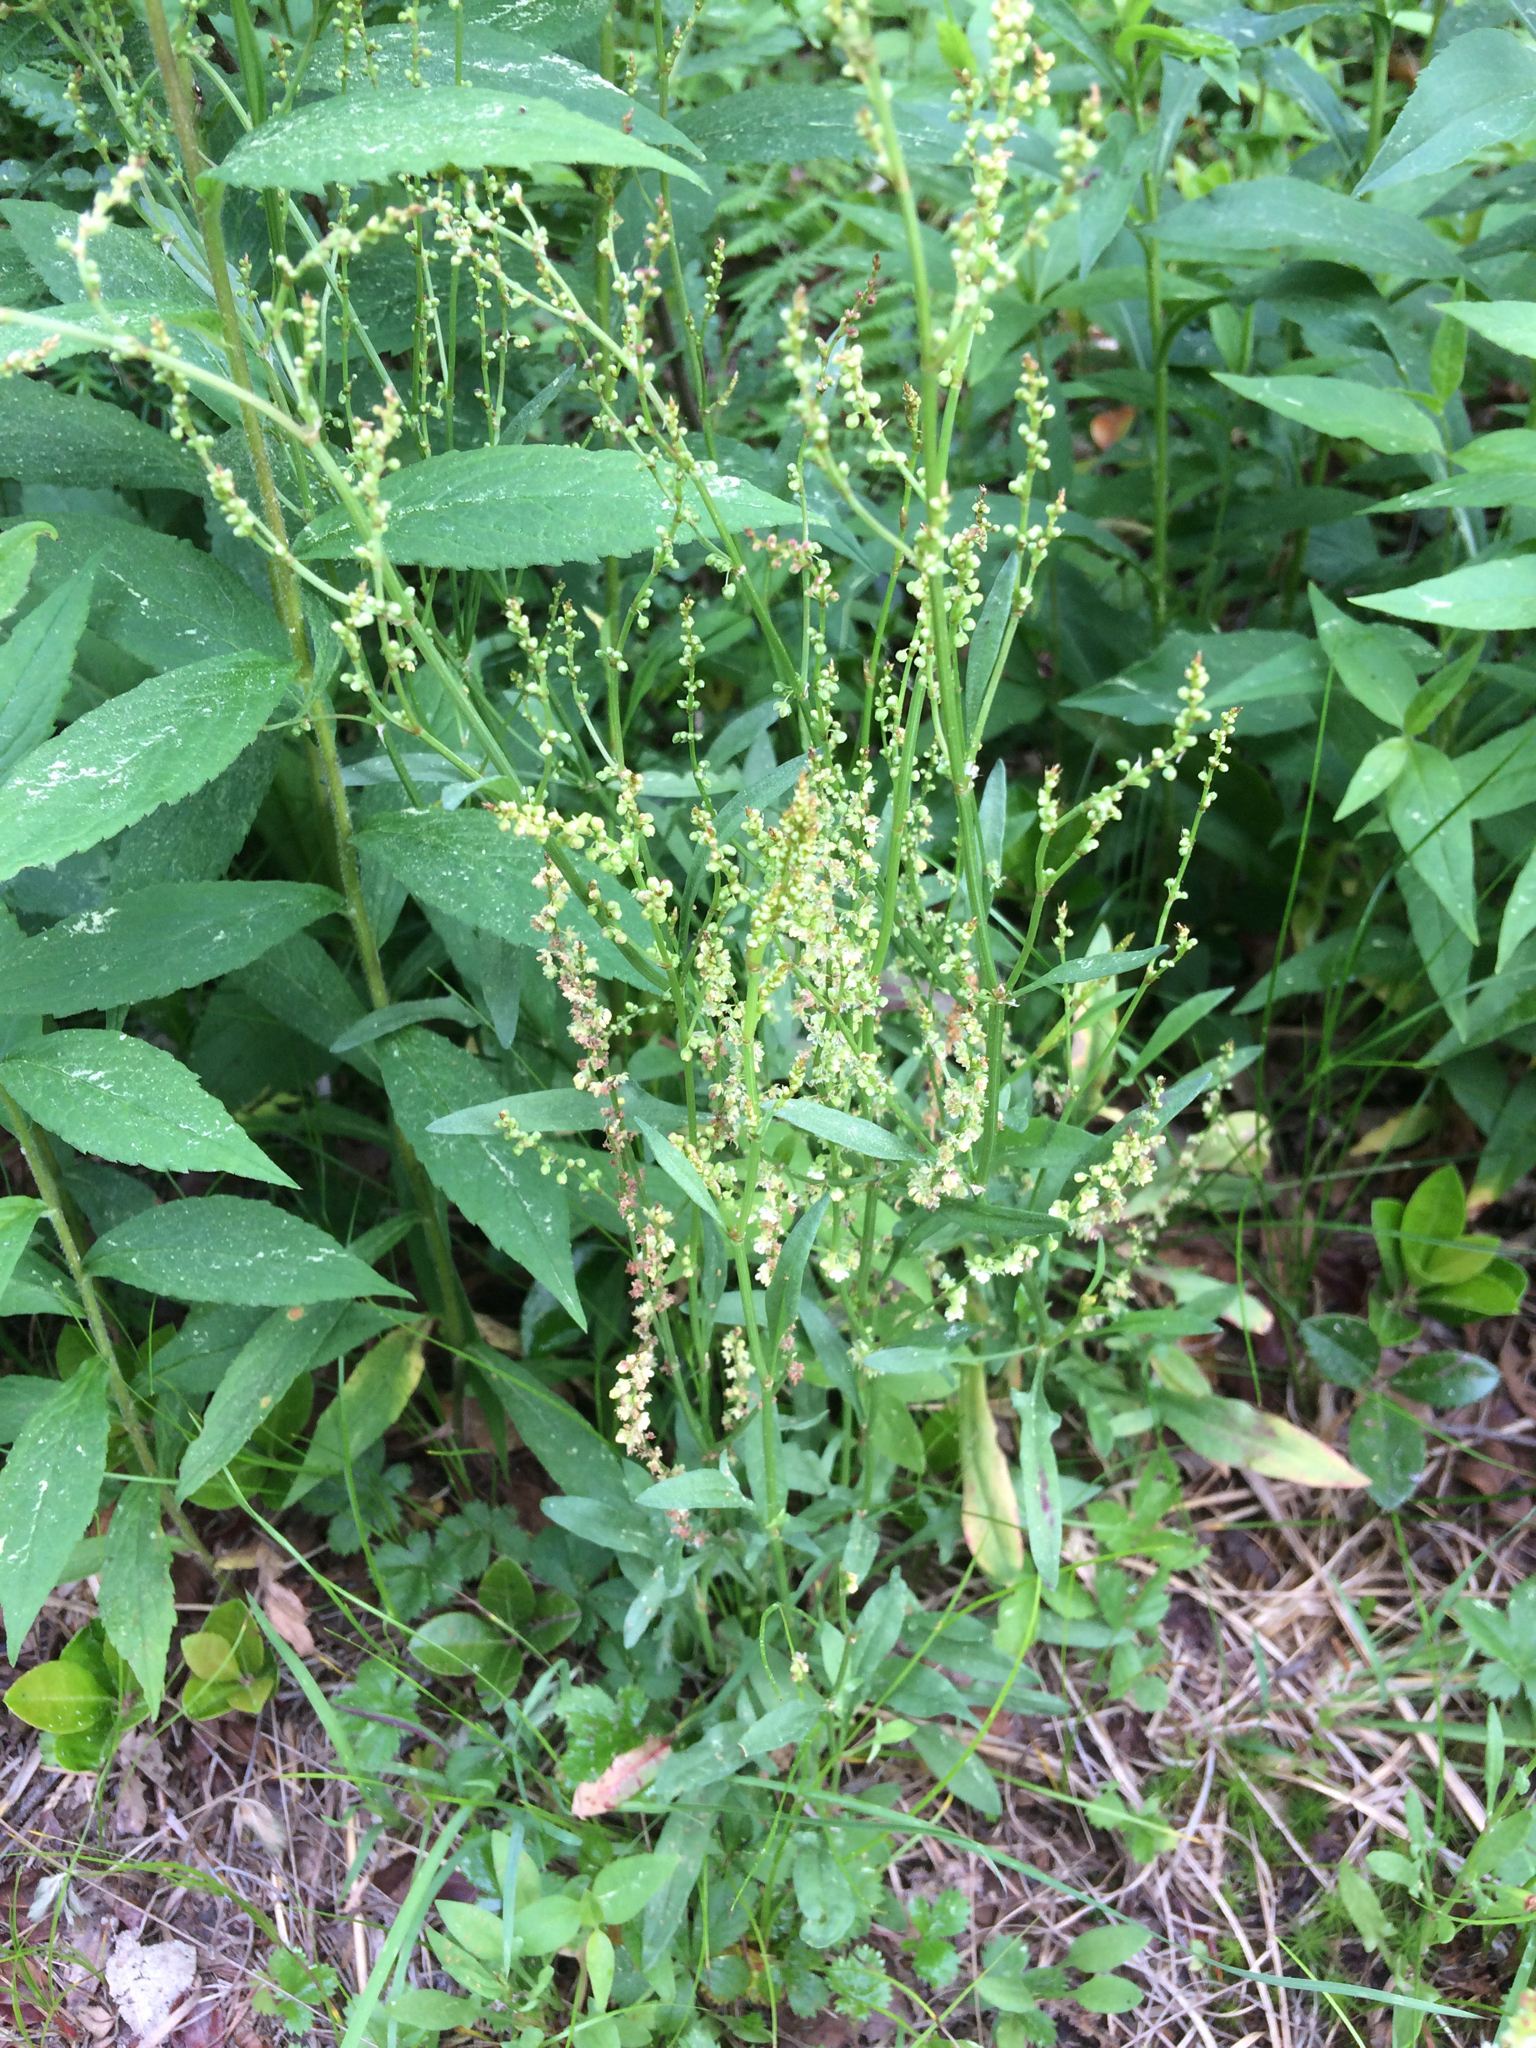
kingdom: Plantae
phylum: Tracheophyta
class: Magnoliopsida
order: Caryophyllales
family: Polygonaceae
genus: Rumex
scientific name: Rumex acetosella
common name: Common sheep sorrel
